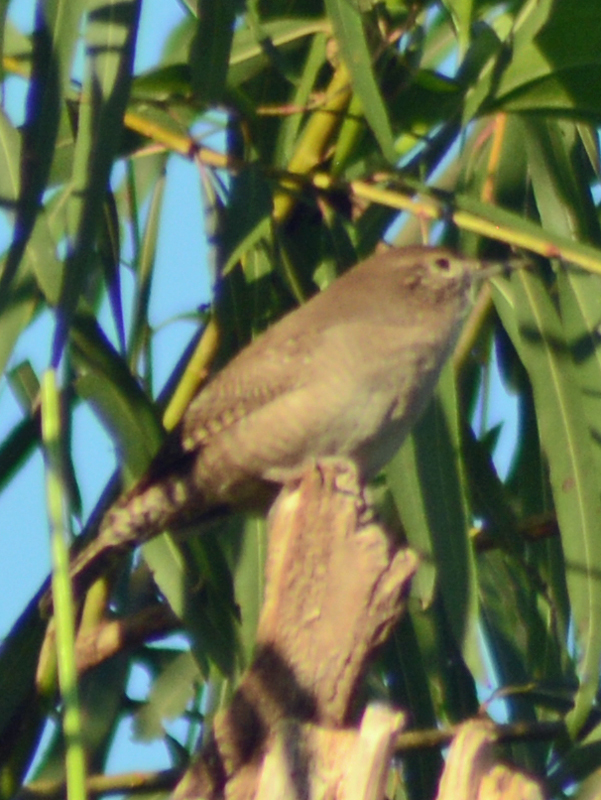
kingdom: Animalia
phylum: Chordata
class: Aves
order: Passeriformes
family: Troglodytidae
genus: Troglodytes
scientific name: Troglodytes aedon
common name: House wren
